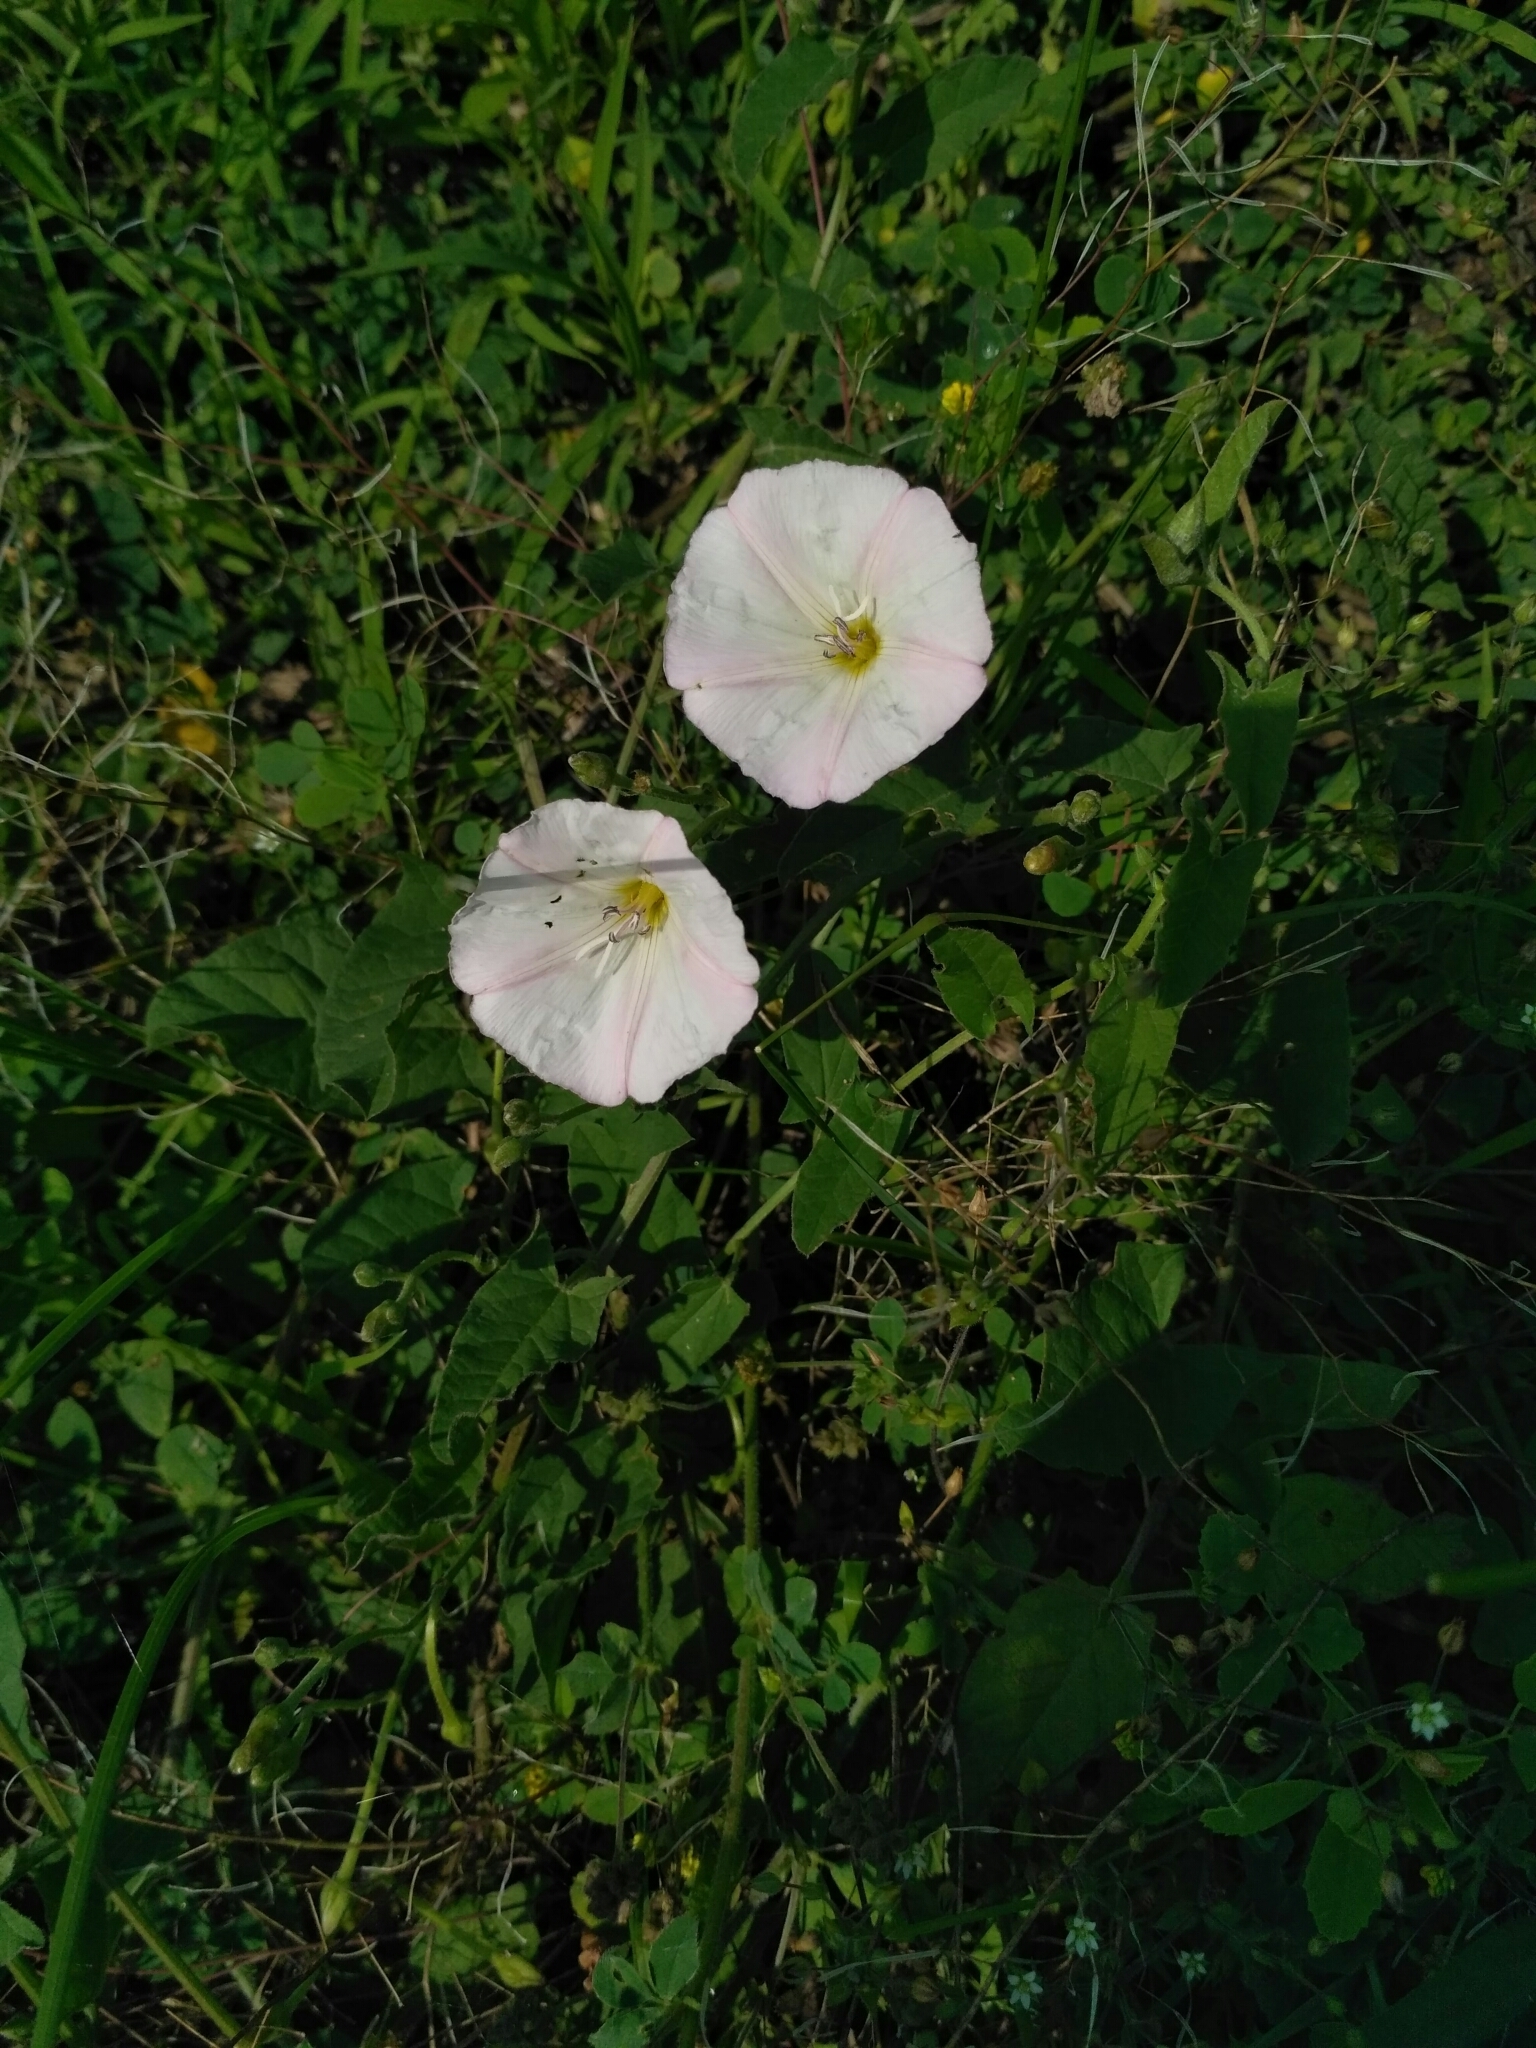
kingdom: Plantae
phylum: Tracheophyta
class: Magnoliopsida
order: Solanales
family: Convolvulaceae
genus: Convolvulus
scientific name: Convolvulus arvensis
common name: Field bindweed
